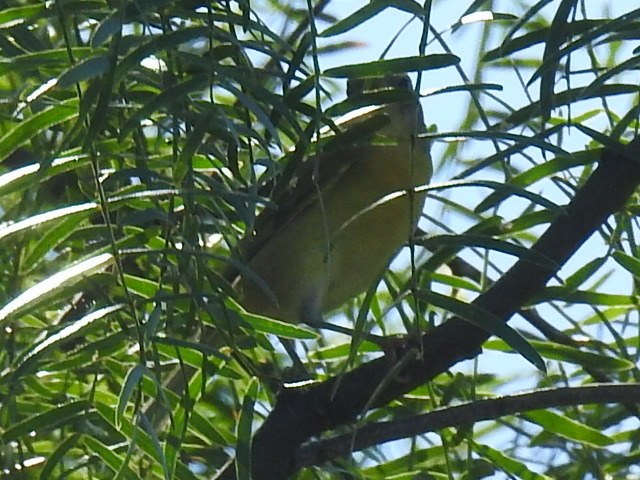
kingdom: Animalia
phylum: Chordata
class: Aves
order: Passeriformes
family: Parulidae
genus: Leiothlypis
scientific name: Leiothlypis ruficapilla
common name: Nashville warbler
